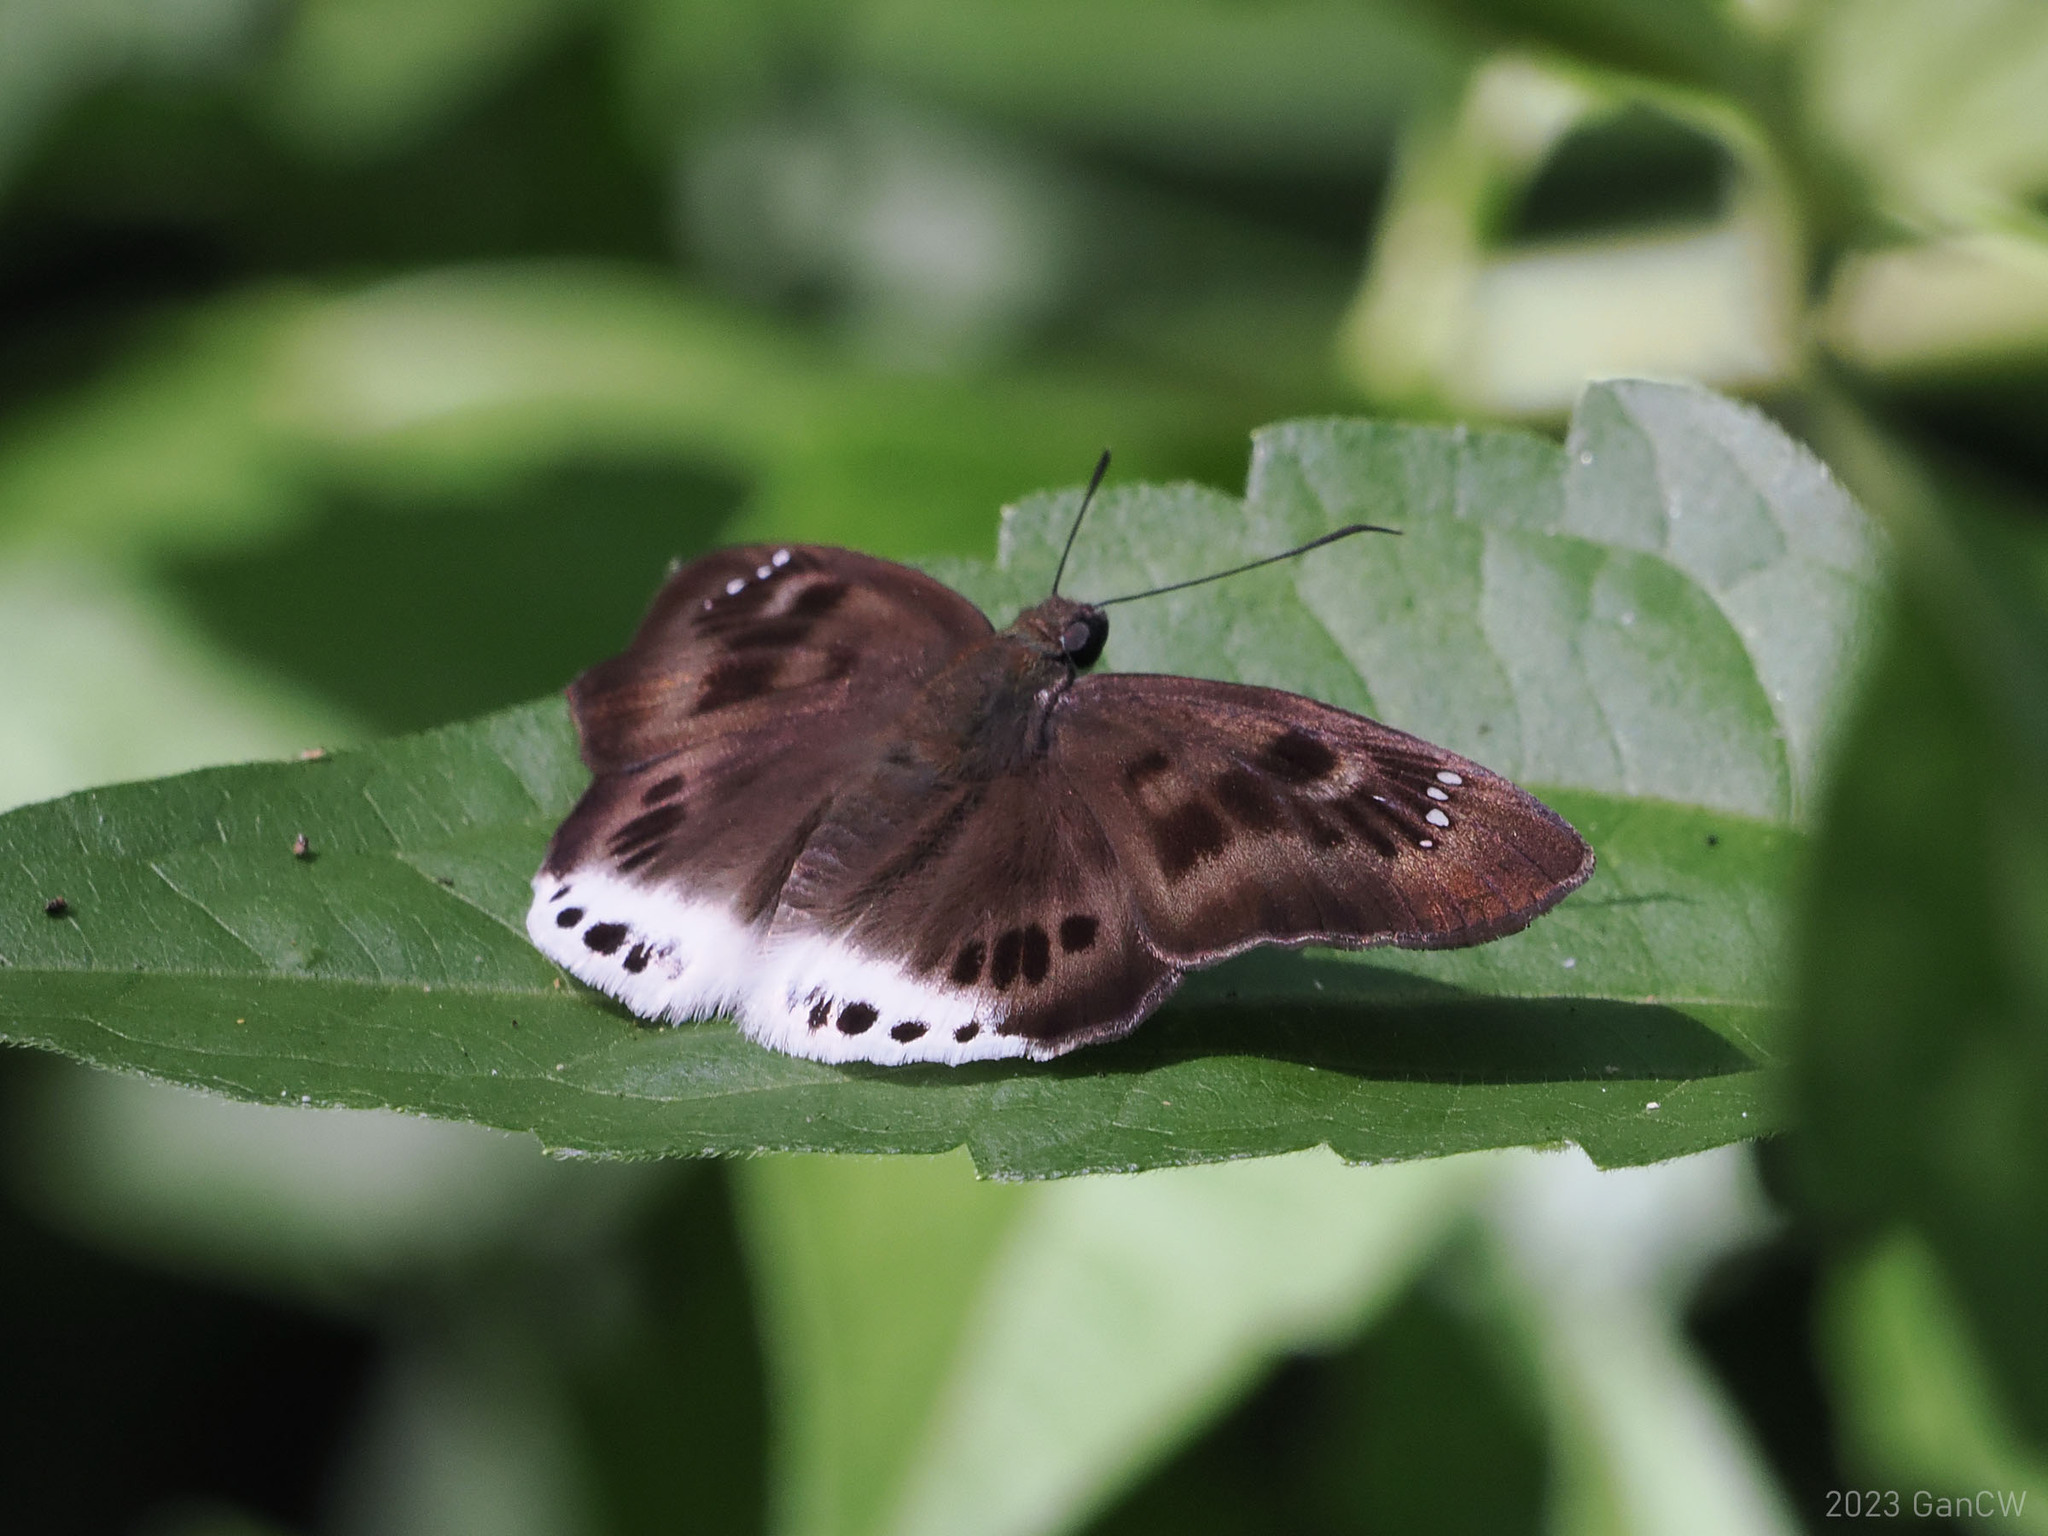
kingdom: Animalia
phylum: Arthropoda
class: Insecta
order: Lepidoptera
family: Hesperiidae
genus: Tagiades
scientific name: Tagiades gana
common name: Suffused snow flat
